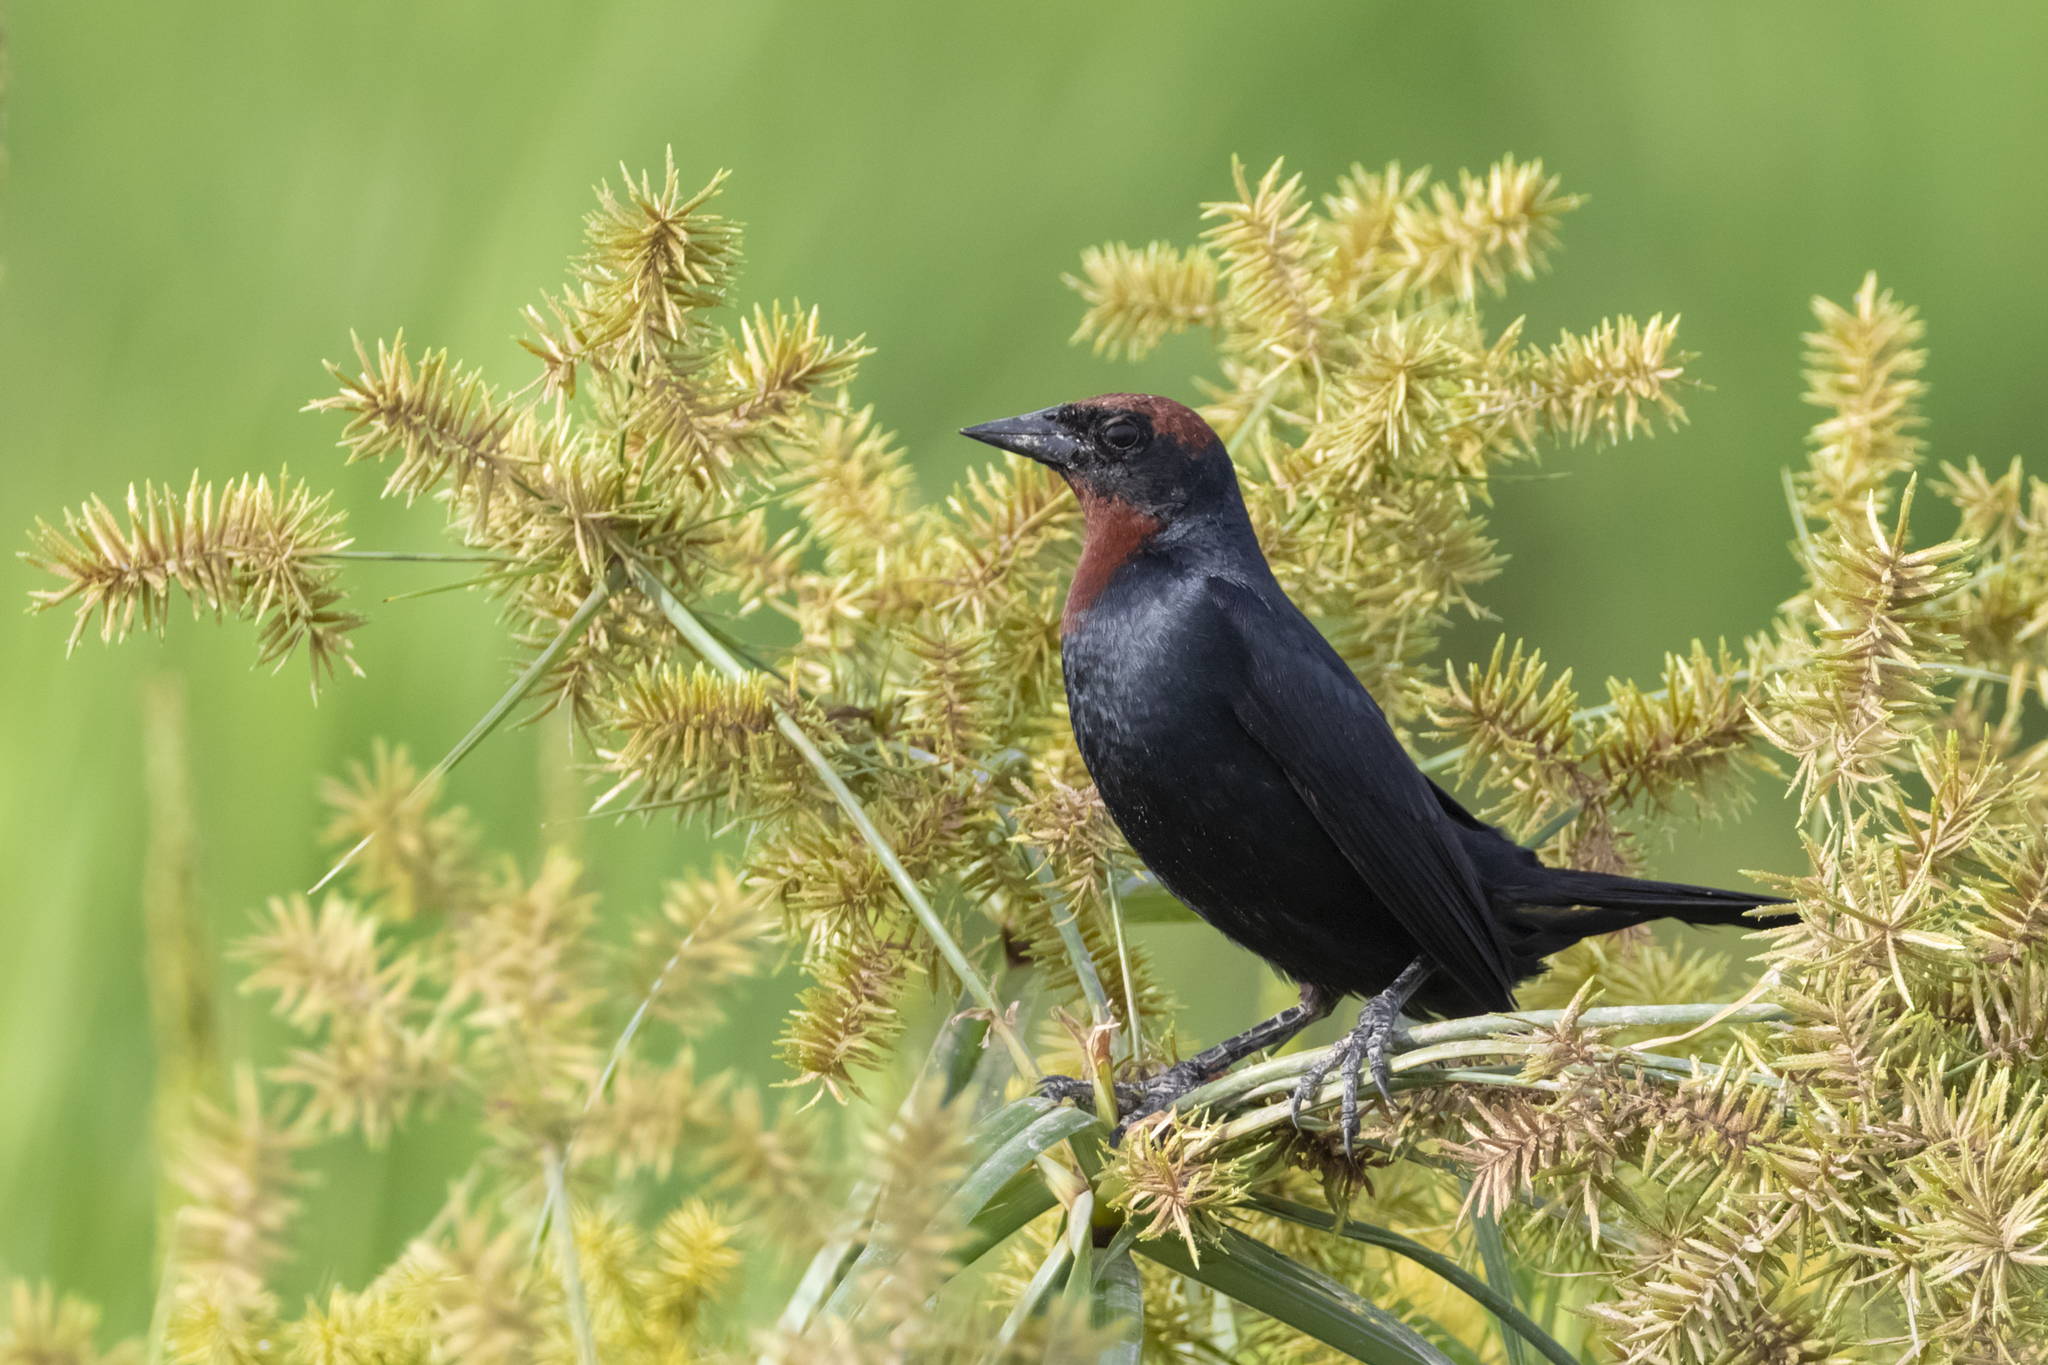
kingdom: Animalia
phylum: Chordata
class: Aves
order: Passeriformes
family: Icteridae
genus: Chrysomus
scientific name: Chrysomus ruficapillus
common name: Chestnut-capped blackbird
